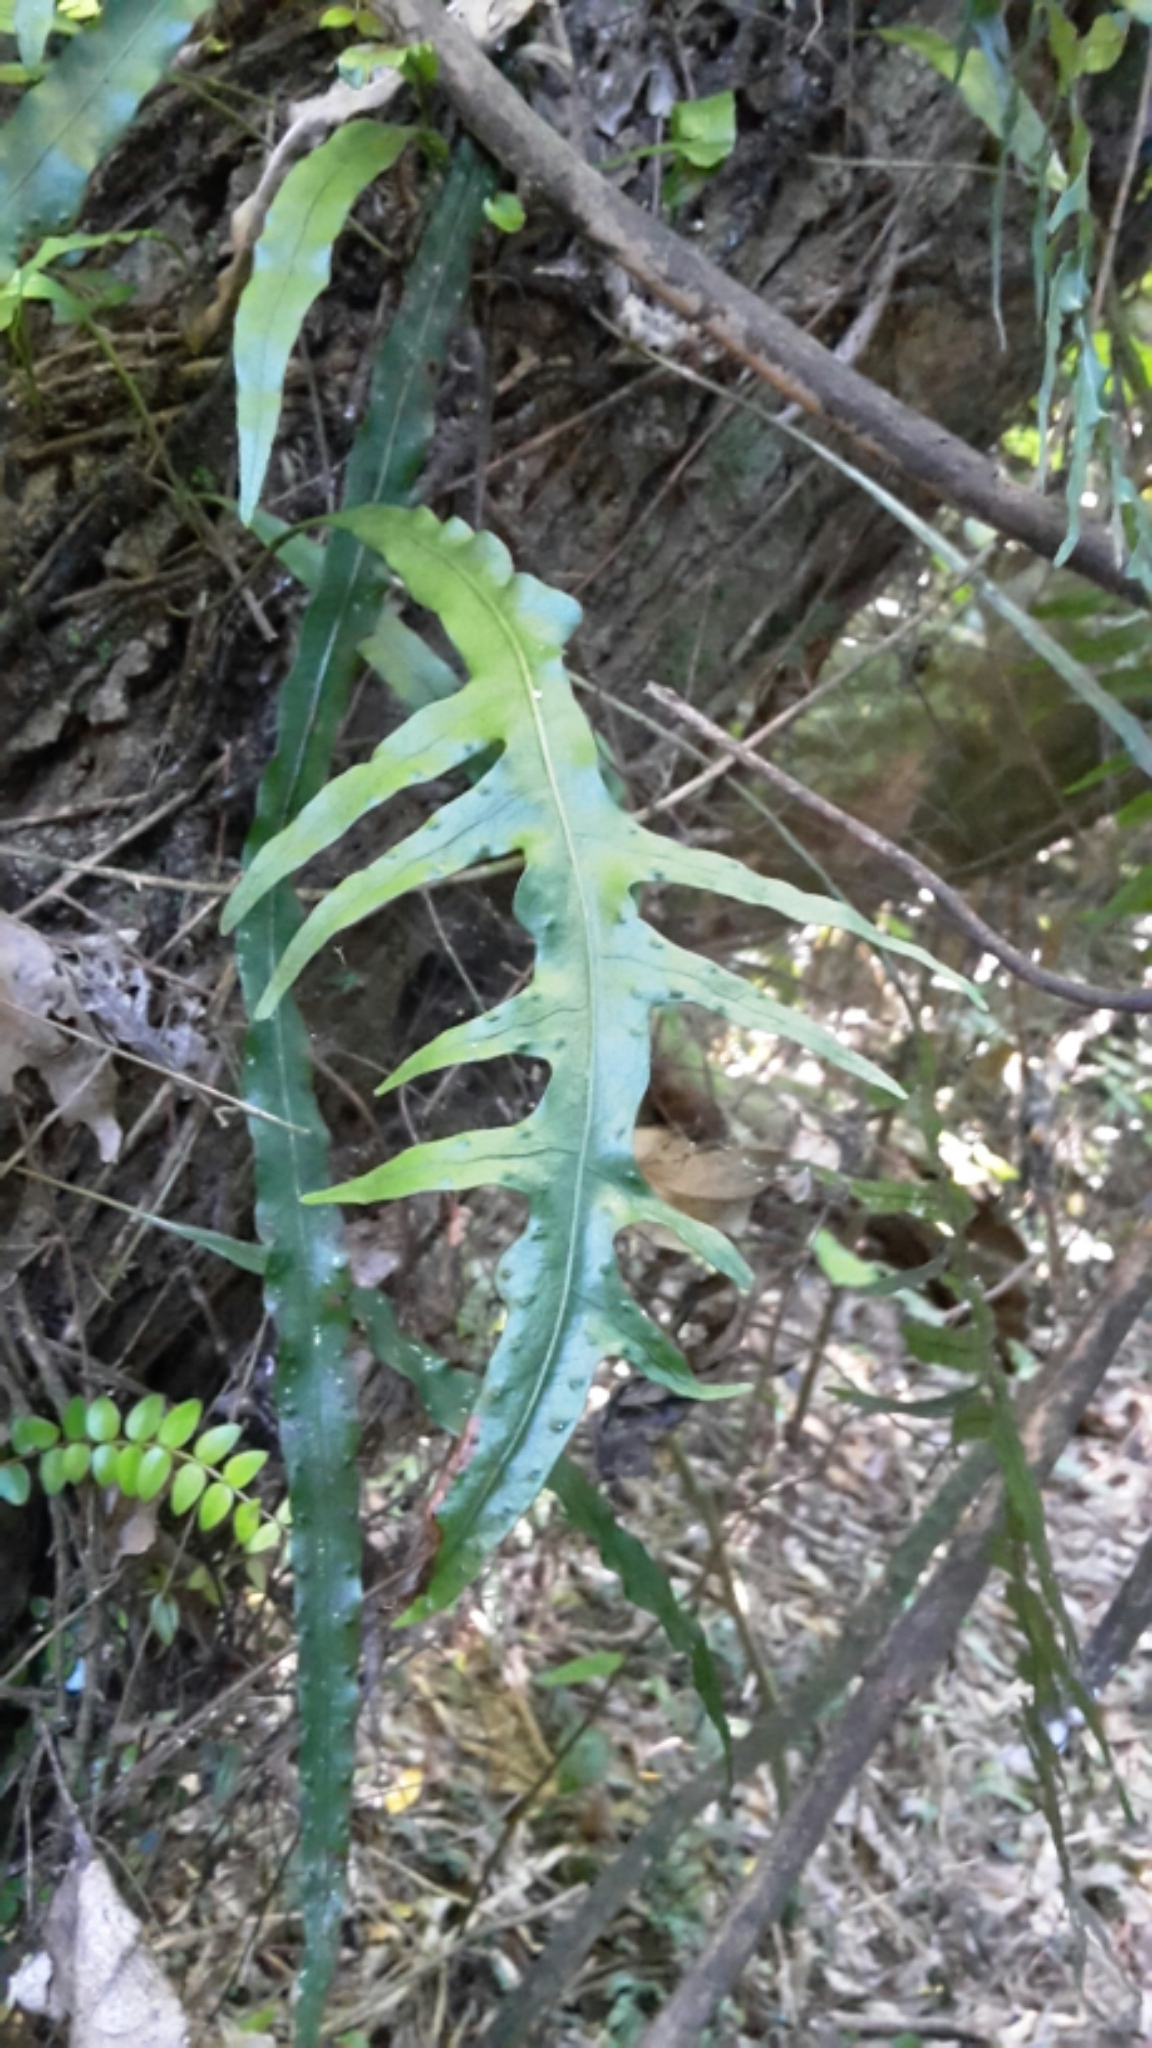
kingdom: Plantae
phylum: Tracheophyta
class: Polypodiopsida
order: Polypodiales
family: Polypodiaceae
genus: Lecanopteris
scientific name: Lecanopteris scandens
